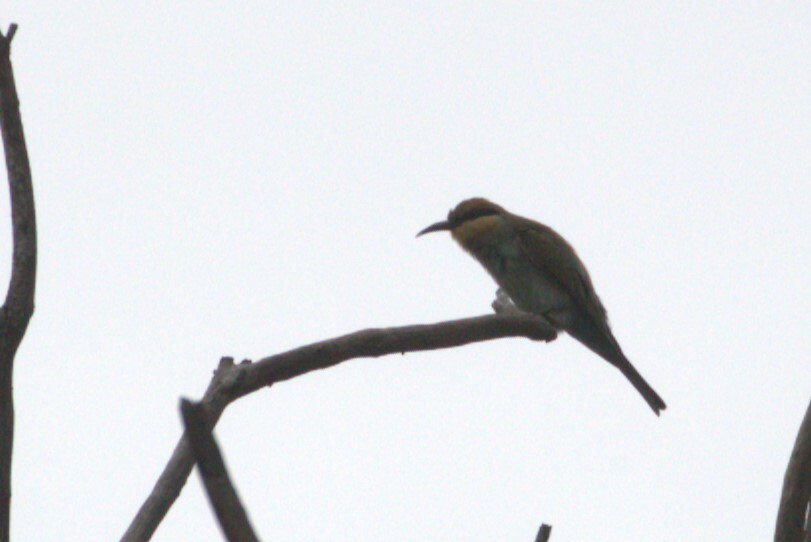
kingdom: Animalia
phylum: Chordata
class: Aves
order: Coraciiformes
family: Meropidae
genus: Merops
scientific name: Merops ornatus
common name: Rainbow bee-eater
